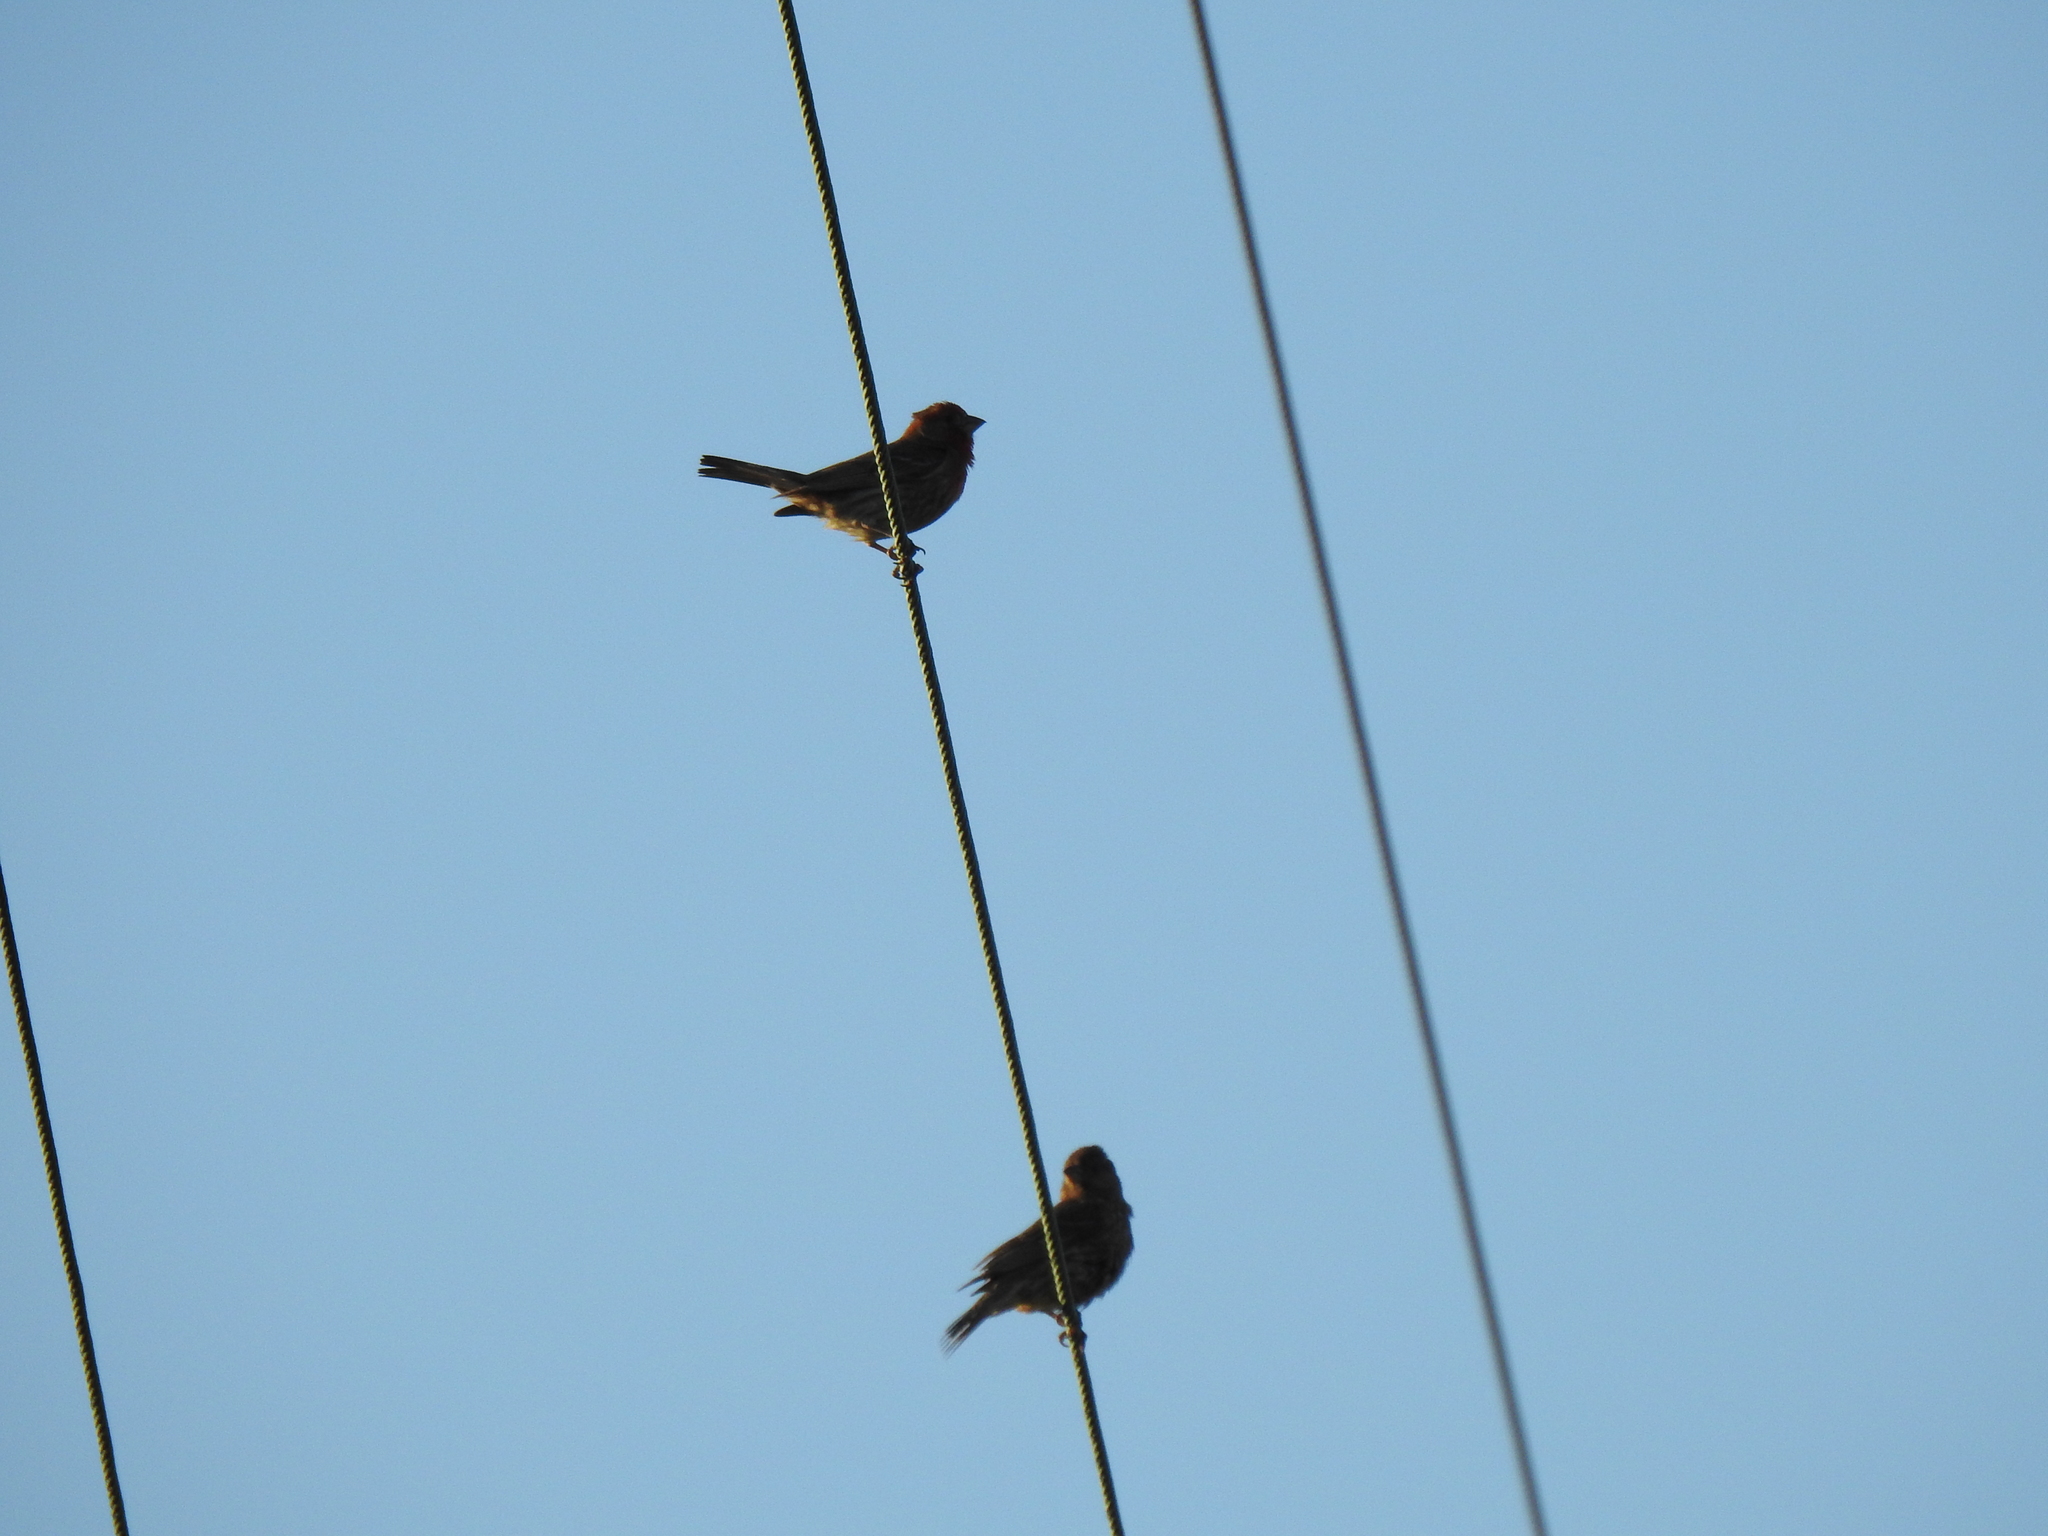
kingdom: Animalia
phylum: Chordata
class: Aves
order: Passeriformes
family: Fringillidae
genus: Haemorhous
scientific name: Haemorhous mexicanus
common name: House finch
